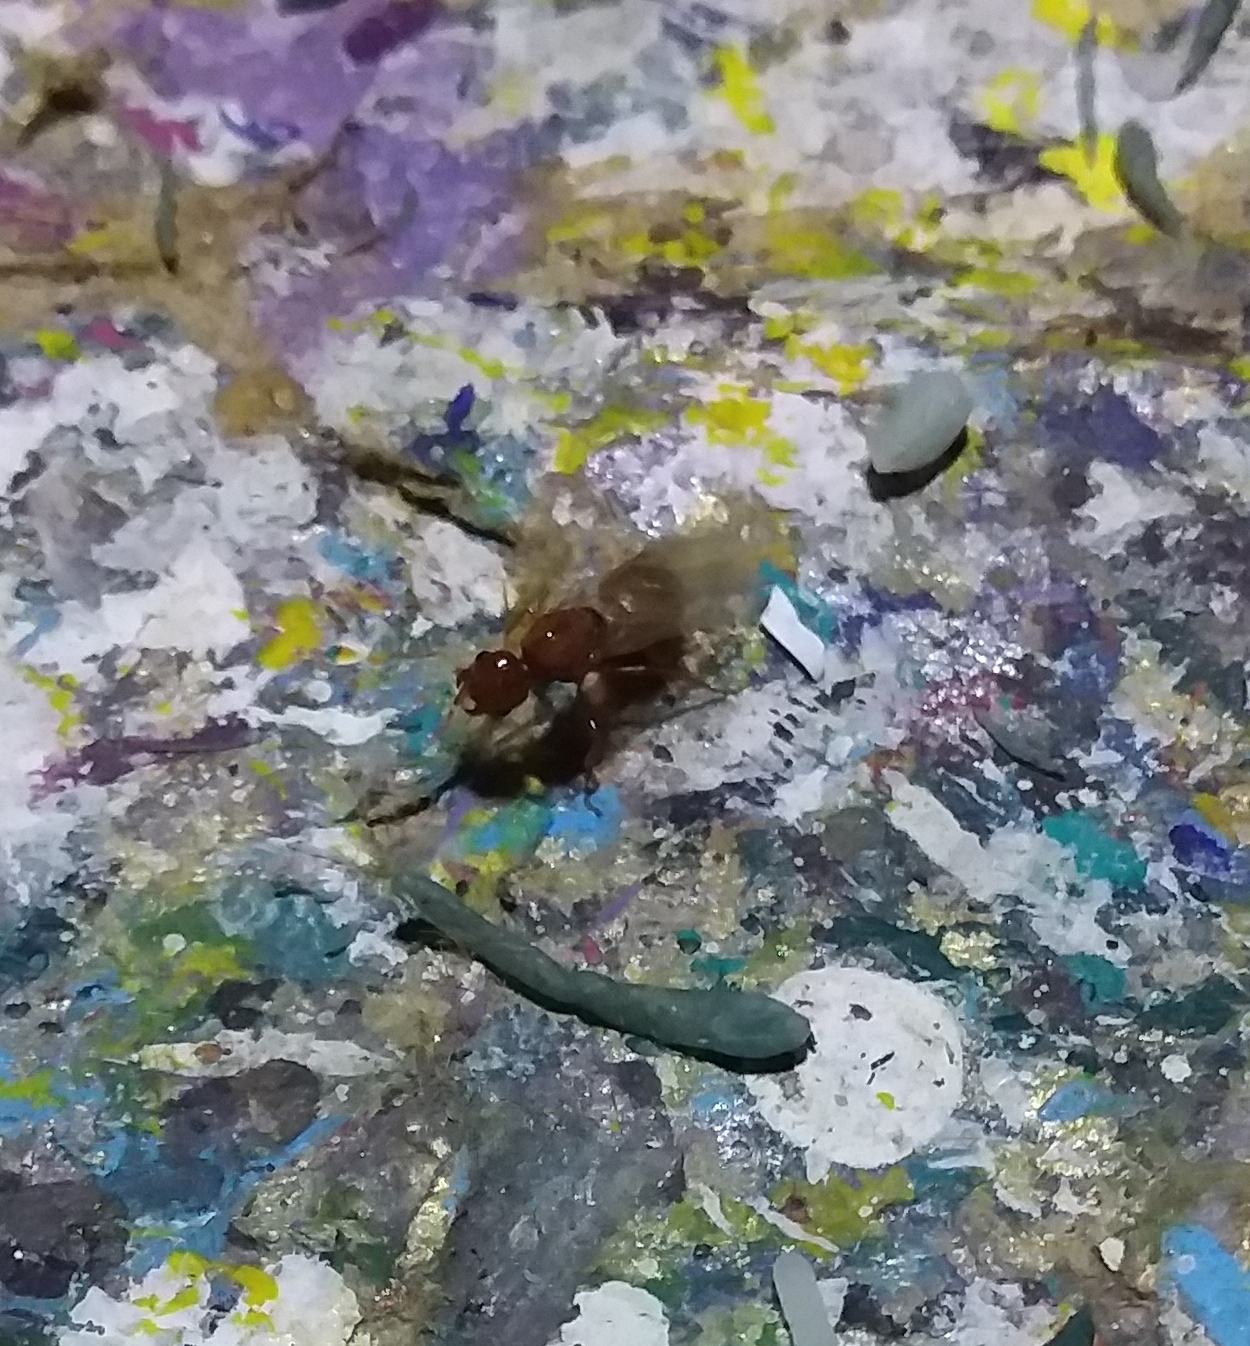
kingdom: Animalia
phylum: Arthropoda
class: Insecta
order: Hymenoptera
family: Formicidae
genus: Solenopsis
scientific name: Solenopsis geminata
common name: Tropical fire ant
